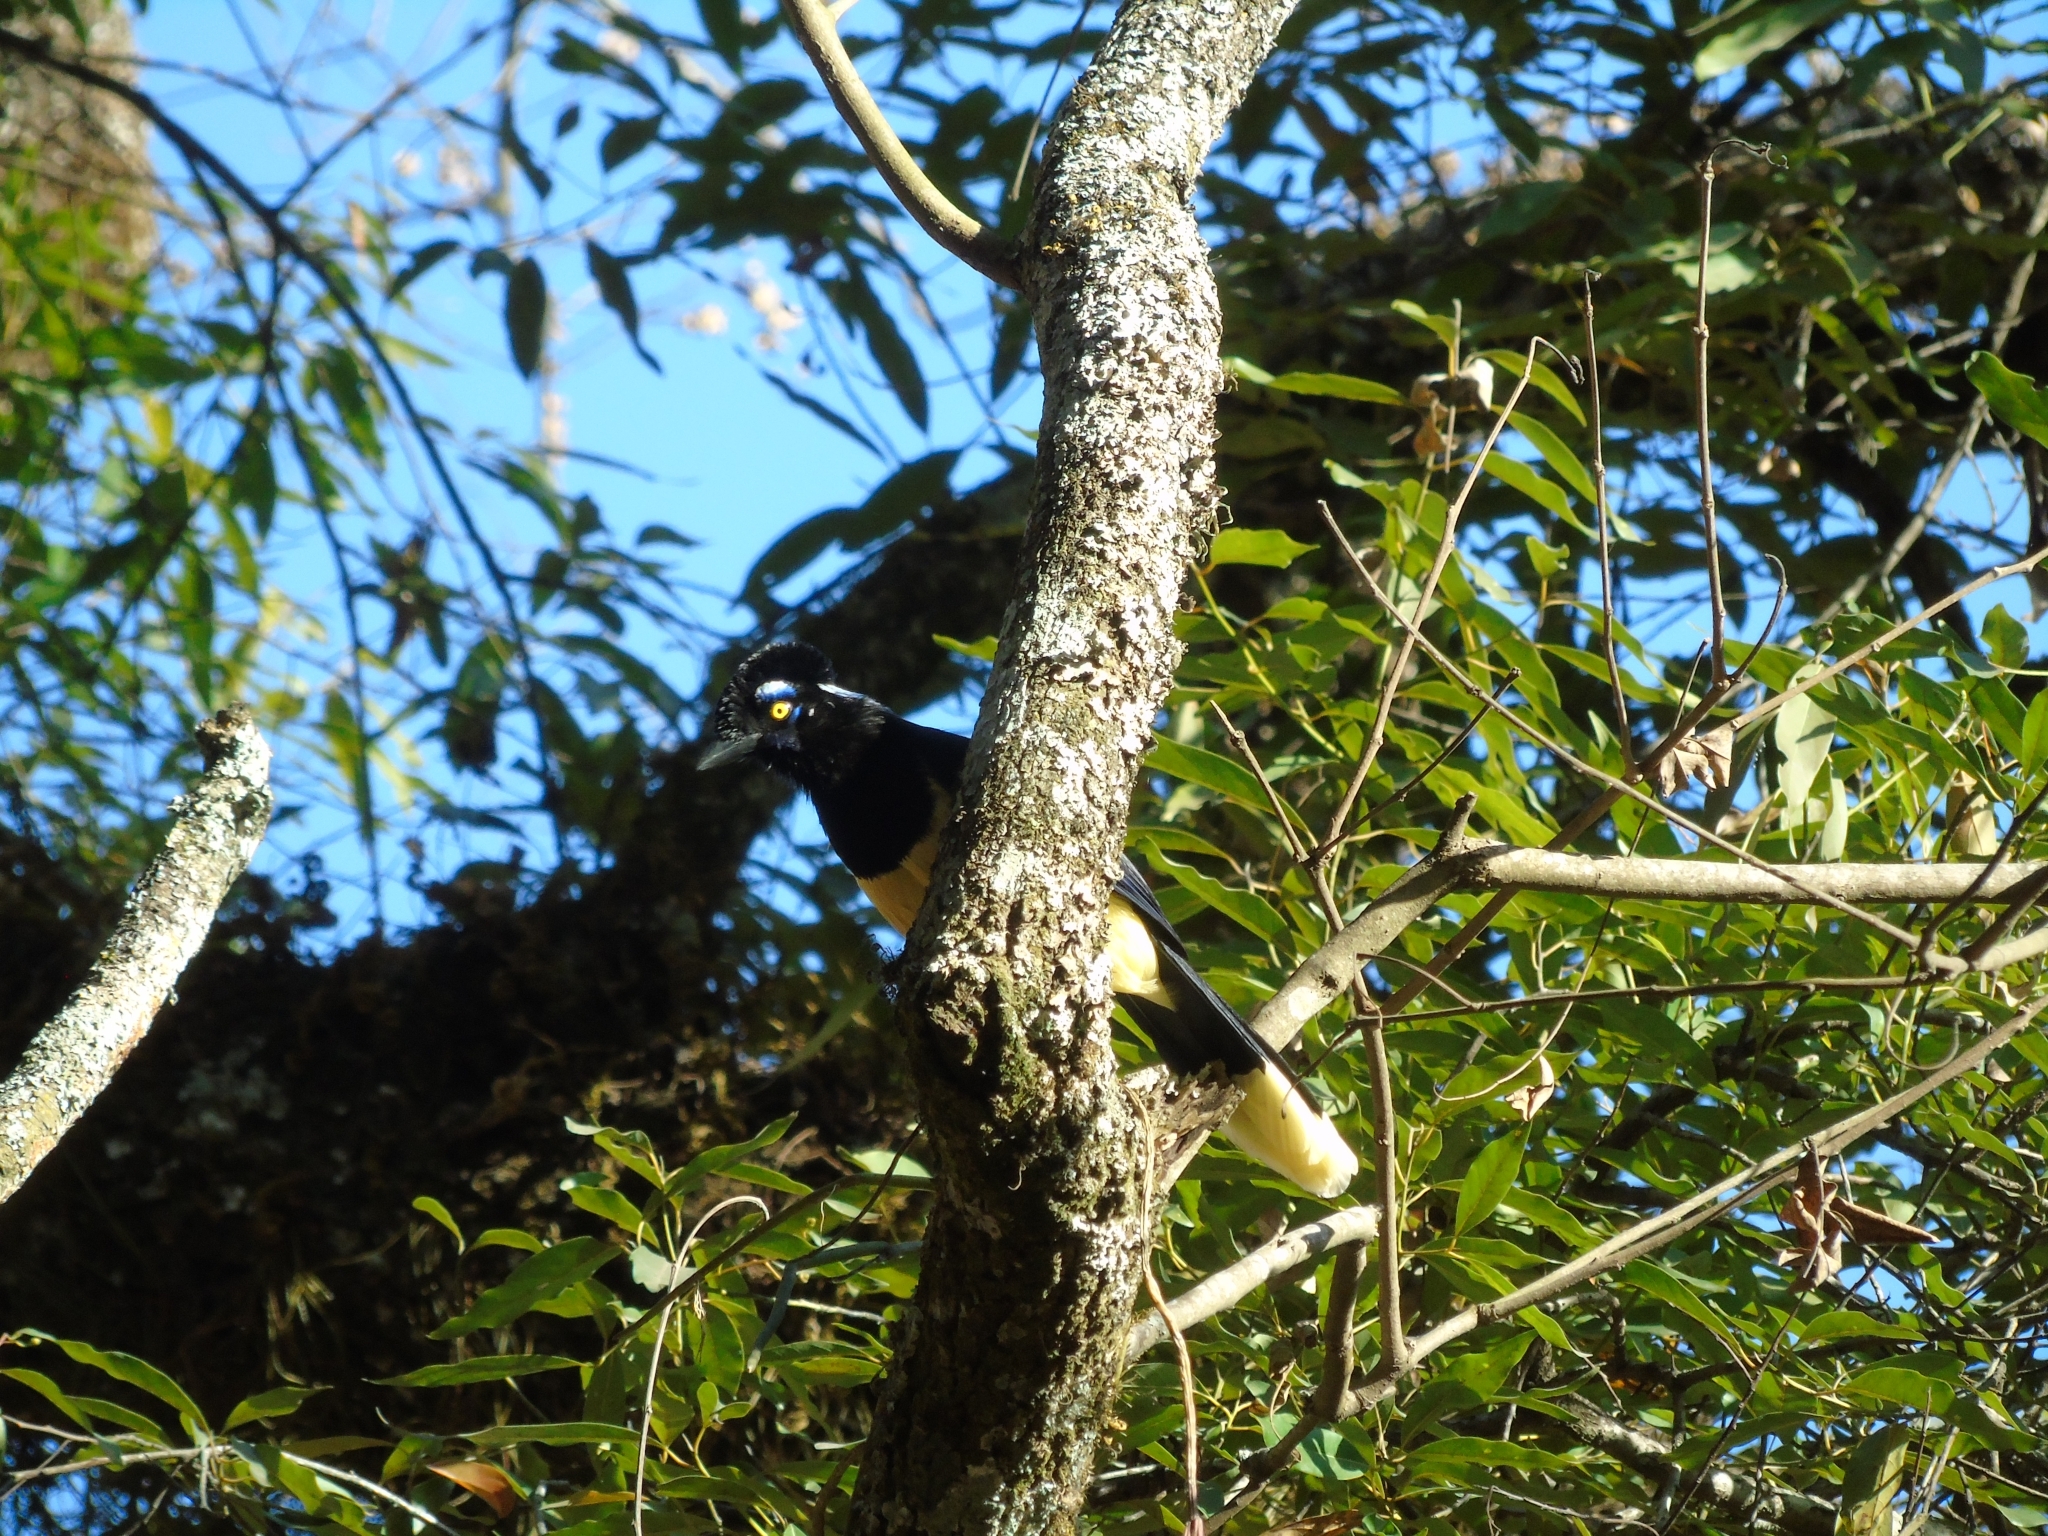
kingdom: Animalia
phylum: Chordata
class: Aves
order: Passeriformes
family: Corvidae
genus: Cyanocorax
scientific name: Cyanocorax chrysops
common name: Plush-crested jay
